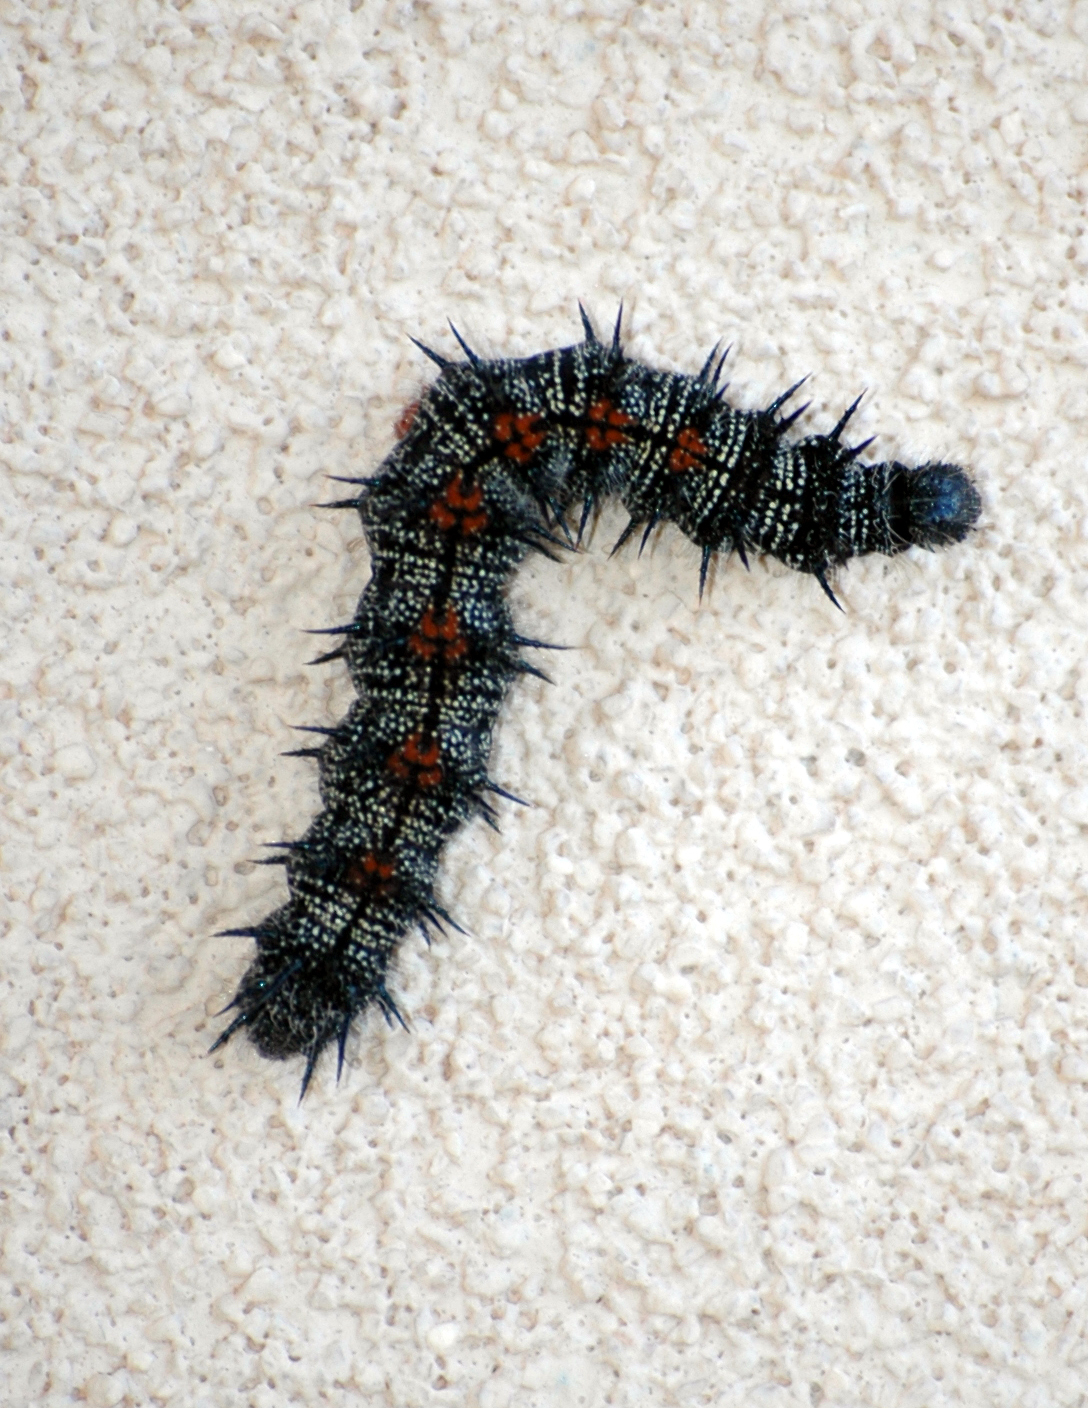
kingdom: Animalia
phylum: Arthropoda
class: Insecta
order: Lepidoptera
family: Nymphalidae
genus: Nymphalis
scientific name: Nymphalis antiopa
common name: Camberwell beauty
